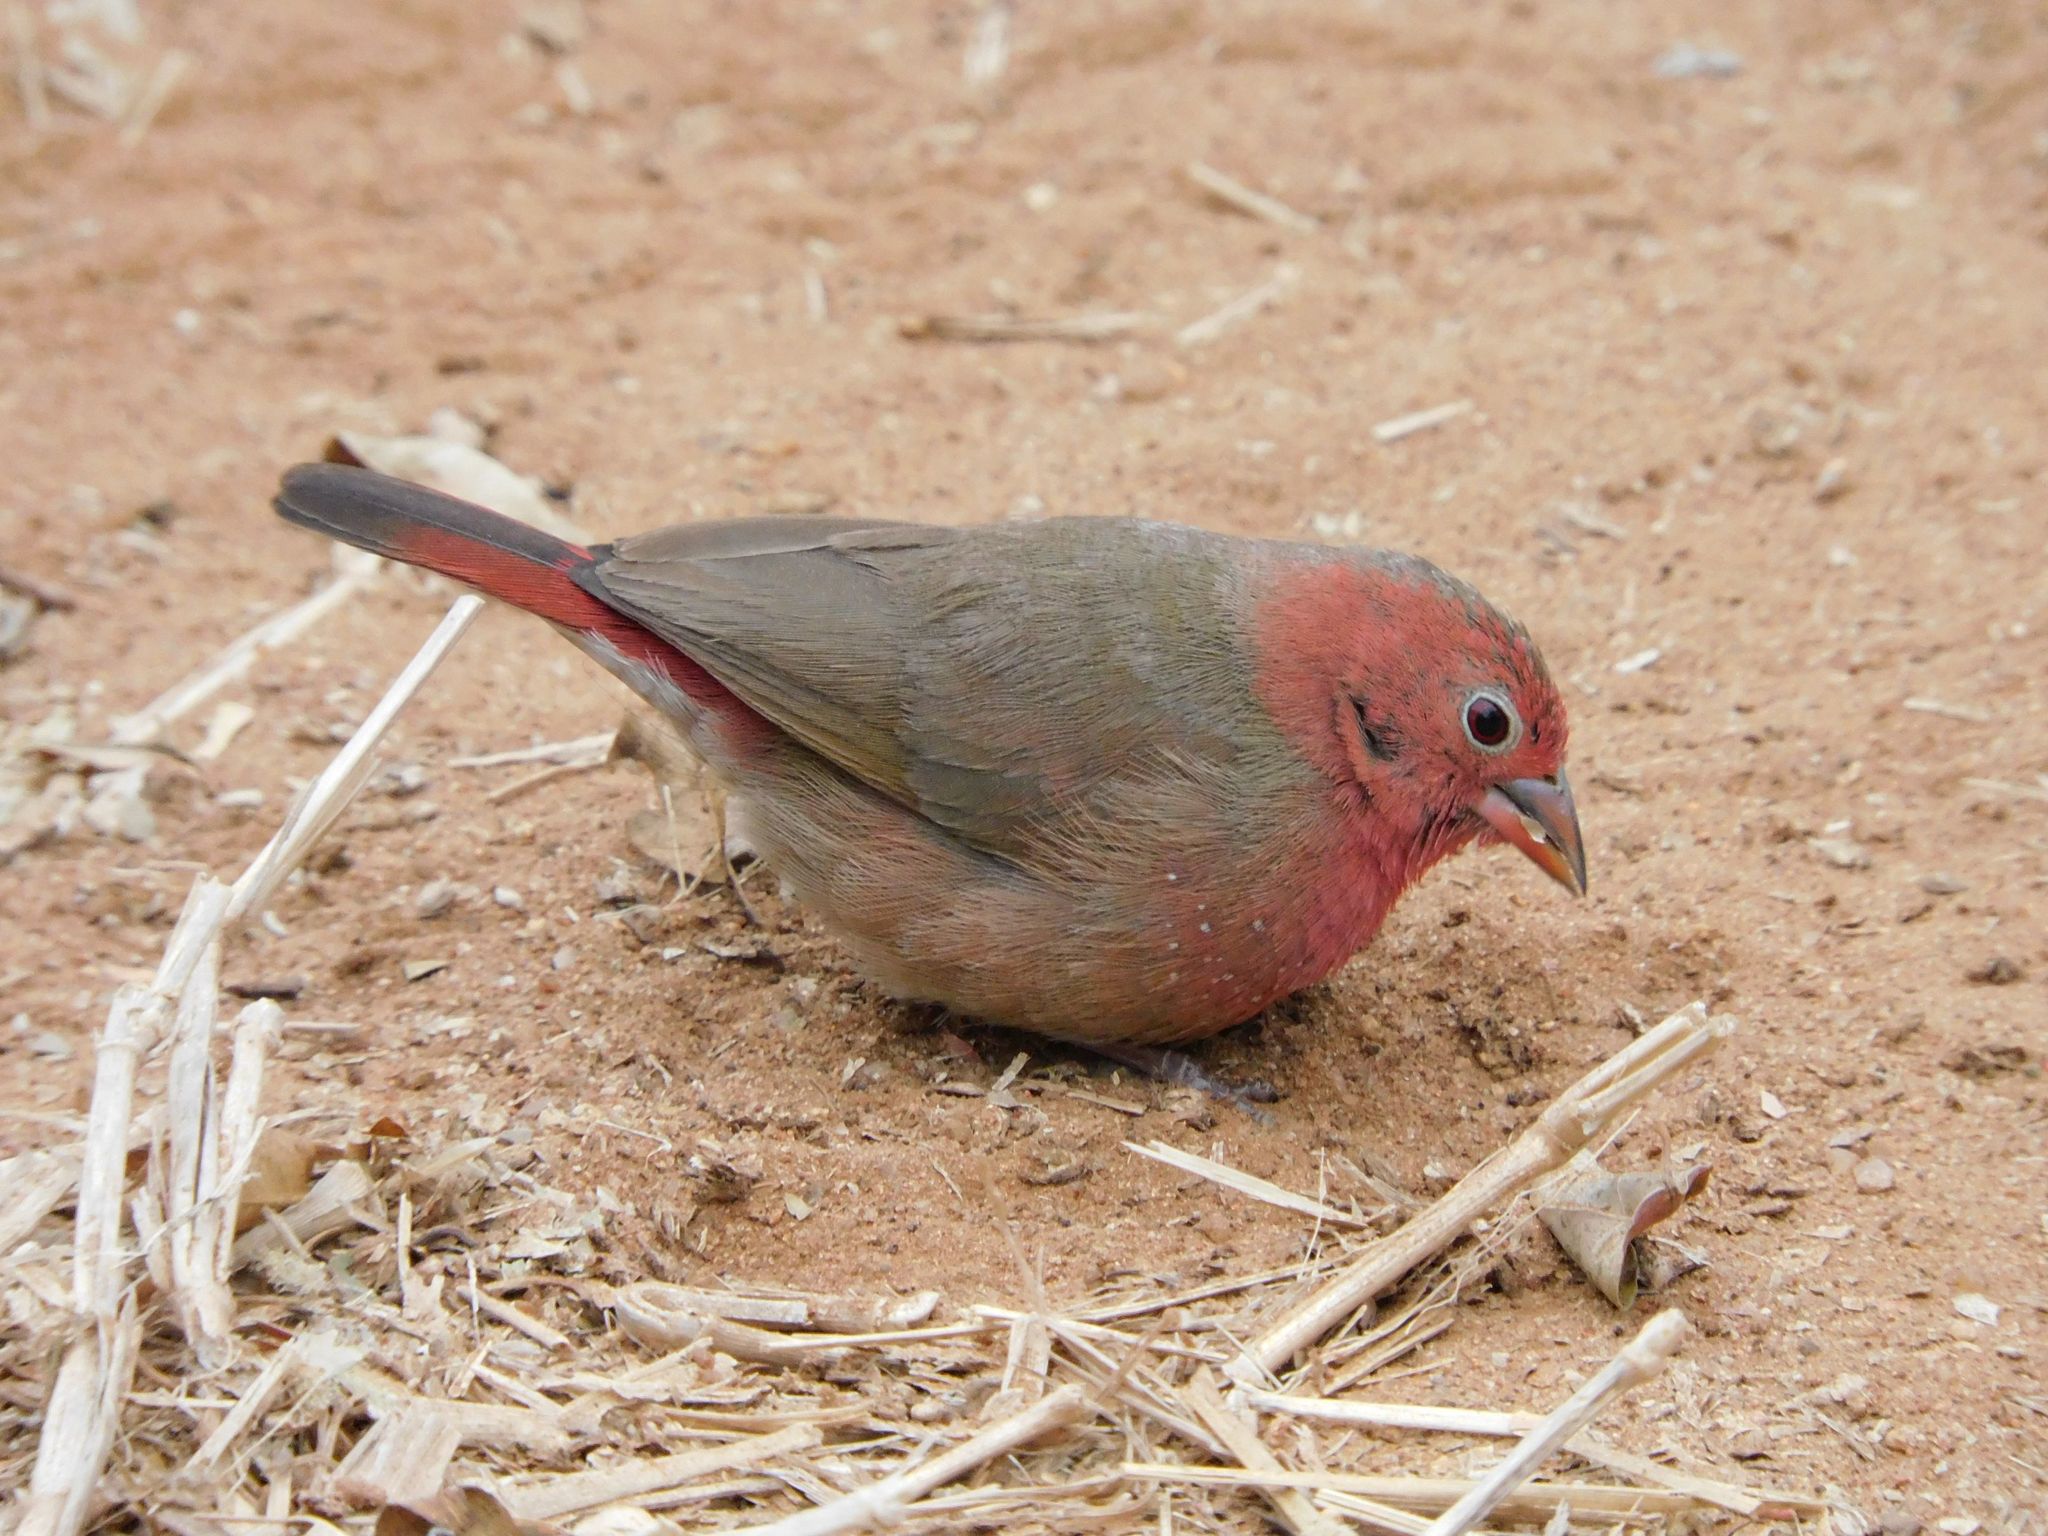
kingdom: Animalia
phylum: Chordata
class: Aves
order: Passeriformes
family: Estrildidae
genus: Lagonosticta
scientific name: Lagonosticta senegala
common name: Red-billed firefinch
